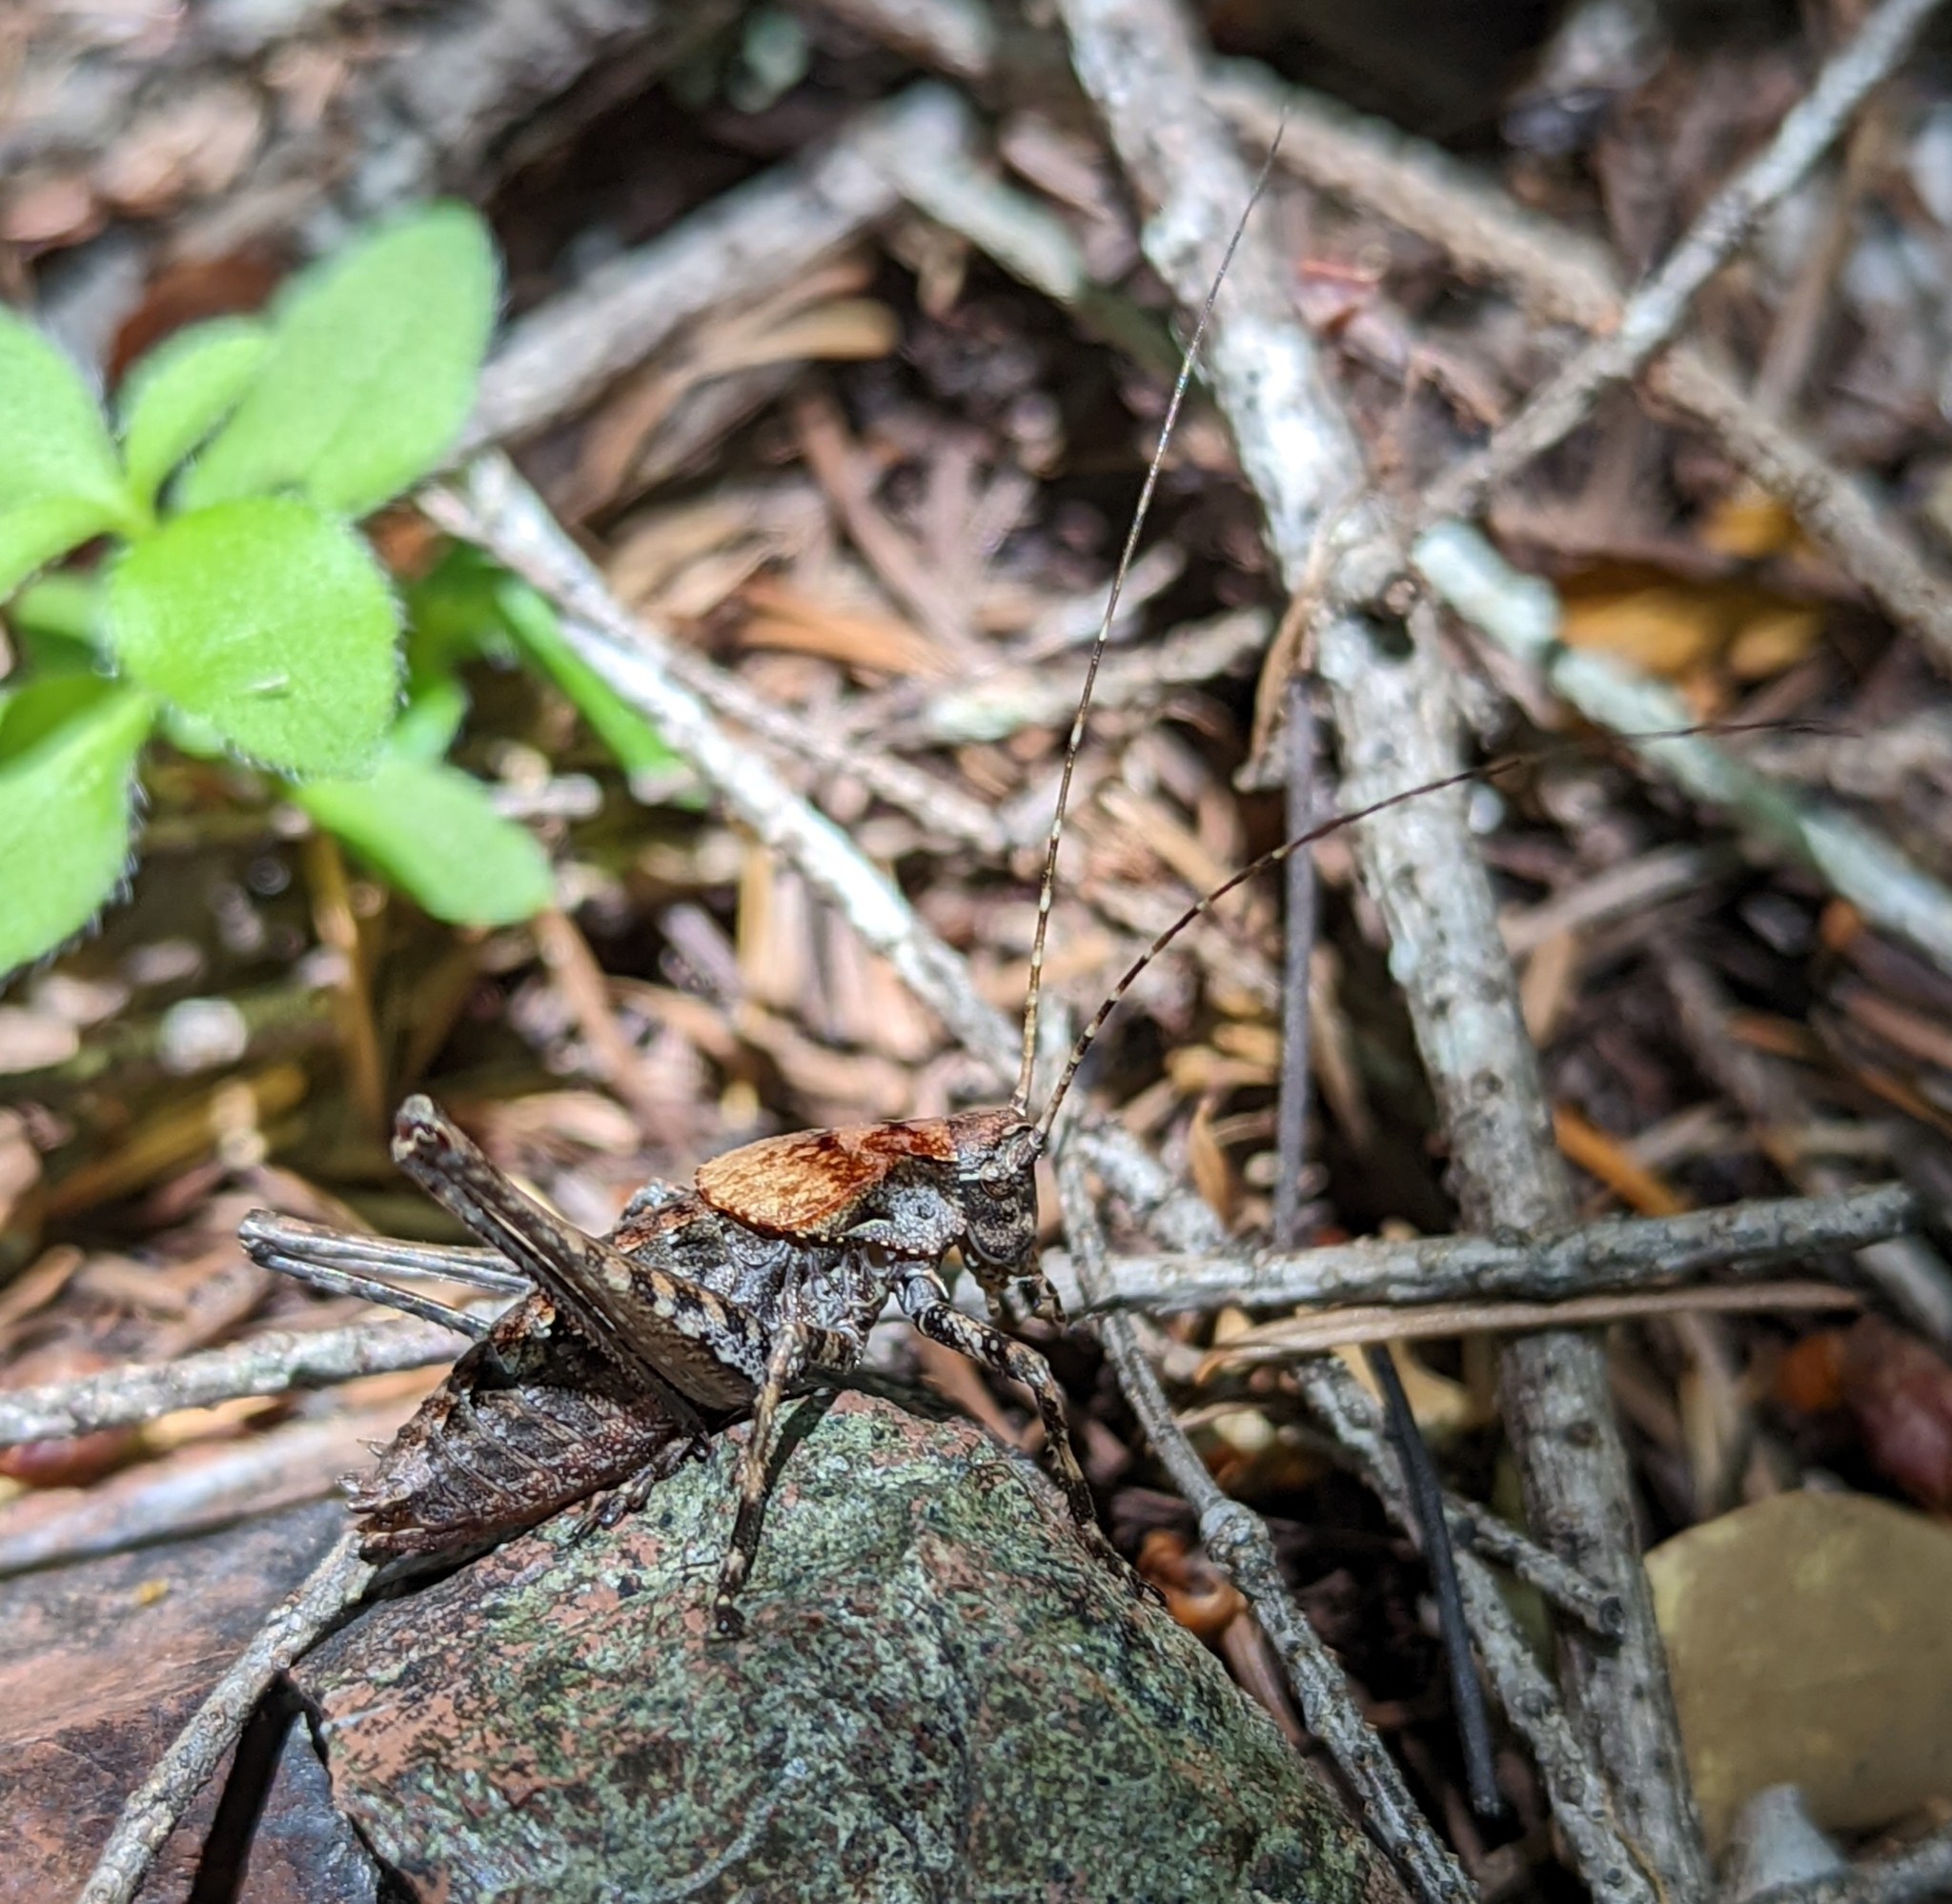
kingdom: Animalia
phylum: Arthropoda
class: Insecta
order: Orthoptera
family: Tettigoniidae
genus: Neduba
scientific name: Neduba steindachneri
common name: Steindachner's shieldback
